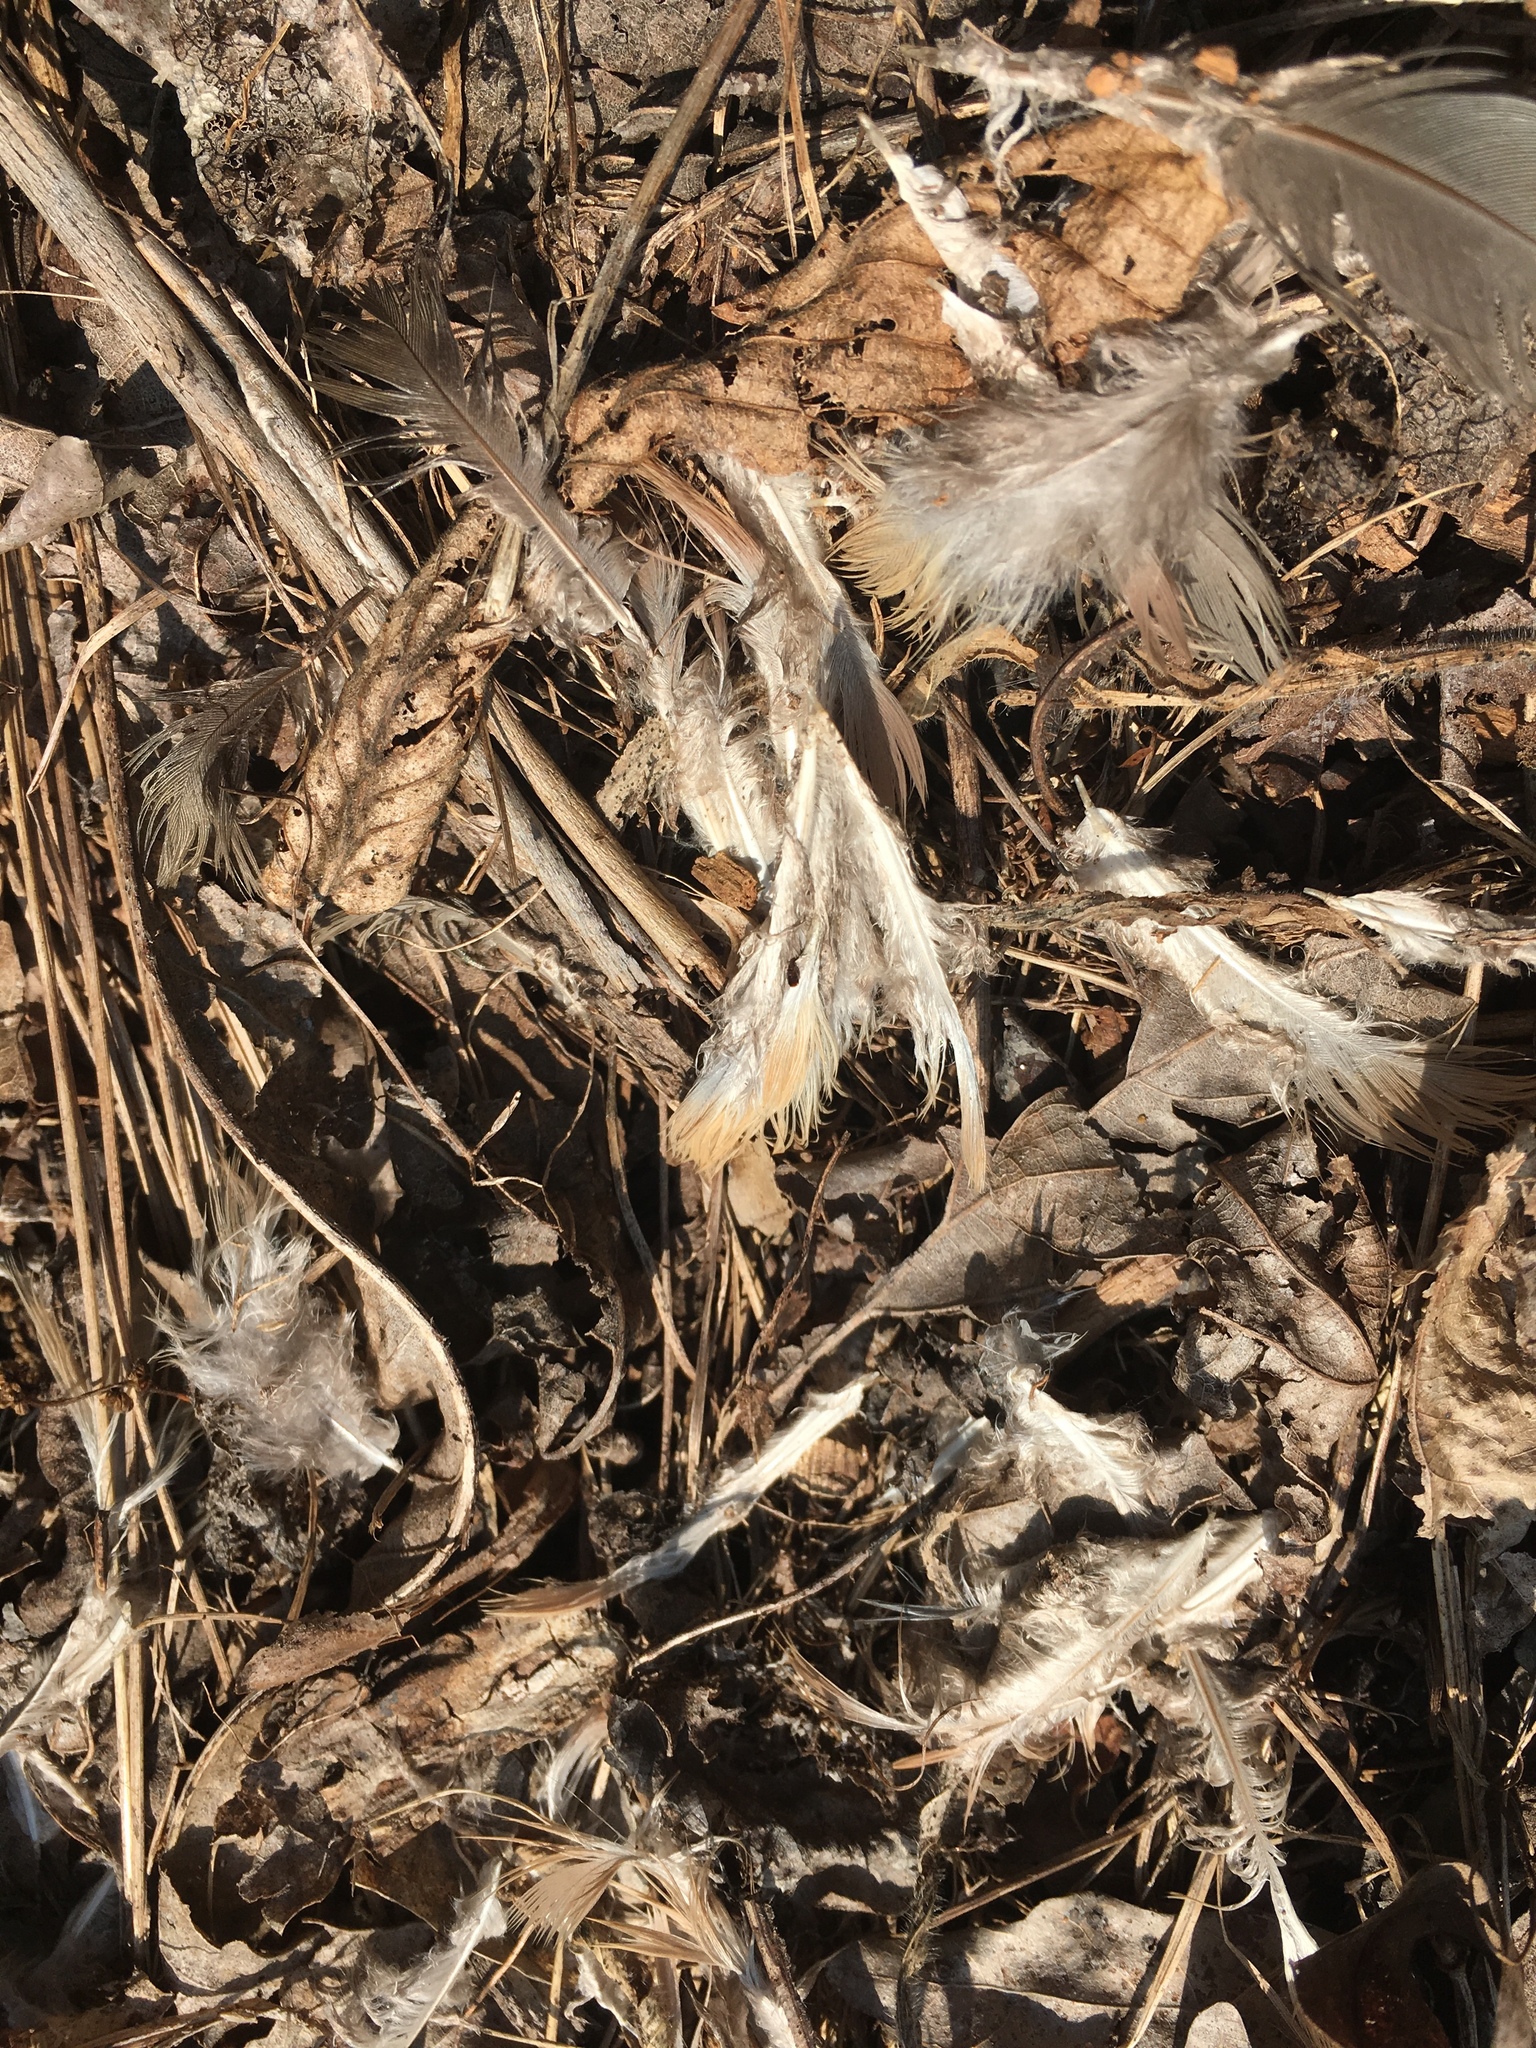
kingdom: Animalia
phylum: Chordata
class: Aves
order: Columbiformes
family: Columbidae
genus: Zenaida
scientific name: Zenaida macroura
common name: Mourning dove
